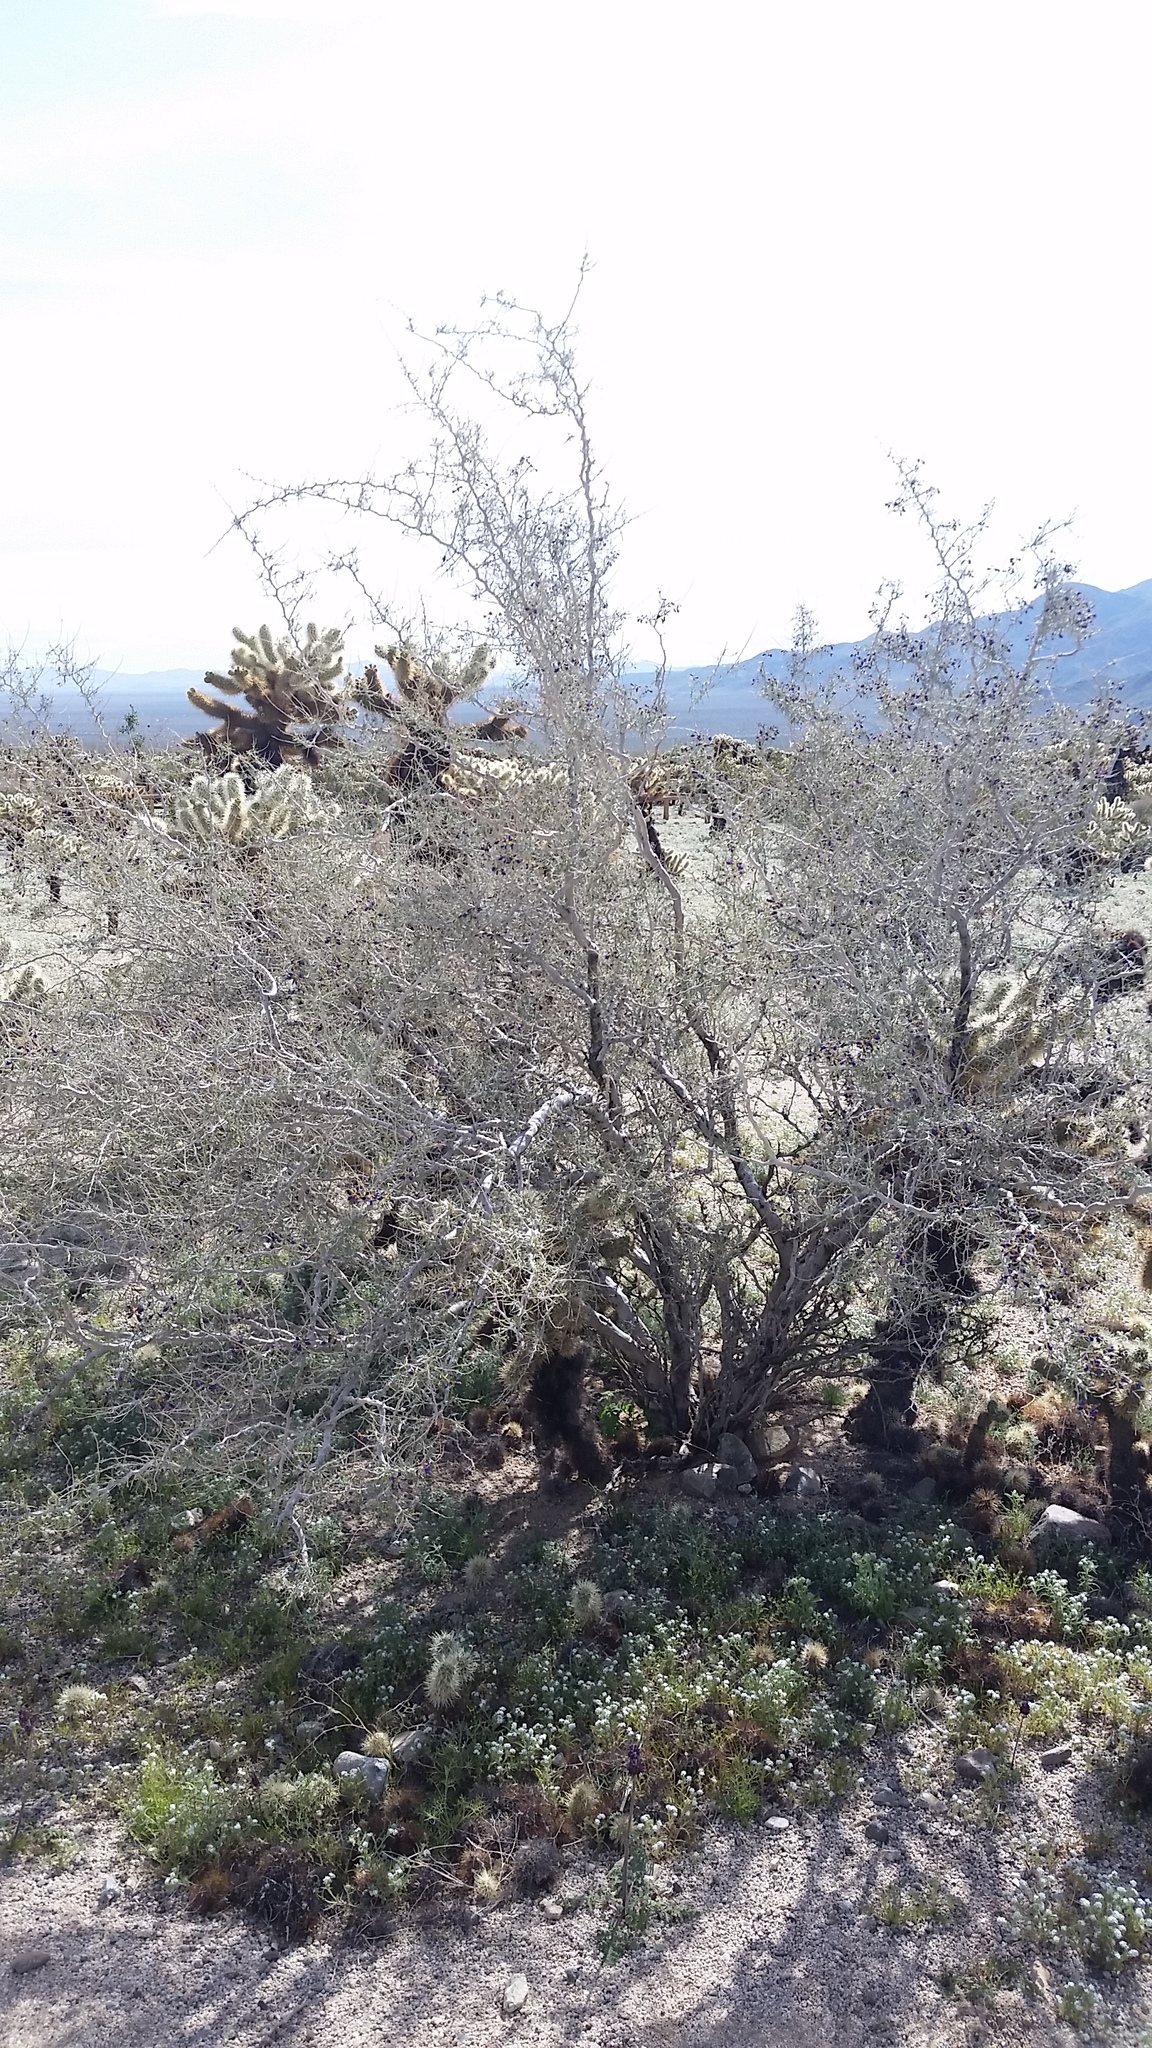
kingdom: Plantae
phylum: Tracheophyta
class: Magnoliopsida
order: Fabales
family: Fabaceae
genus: Psorothamnus
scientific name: Psorothamnus schottii
